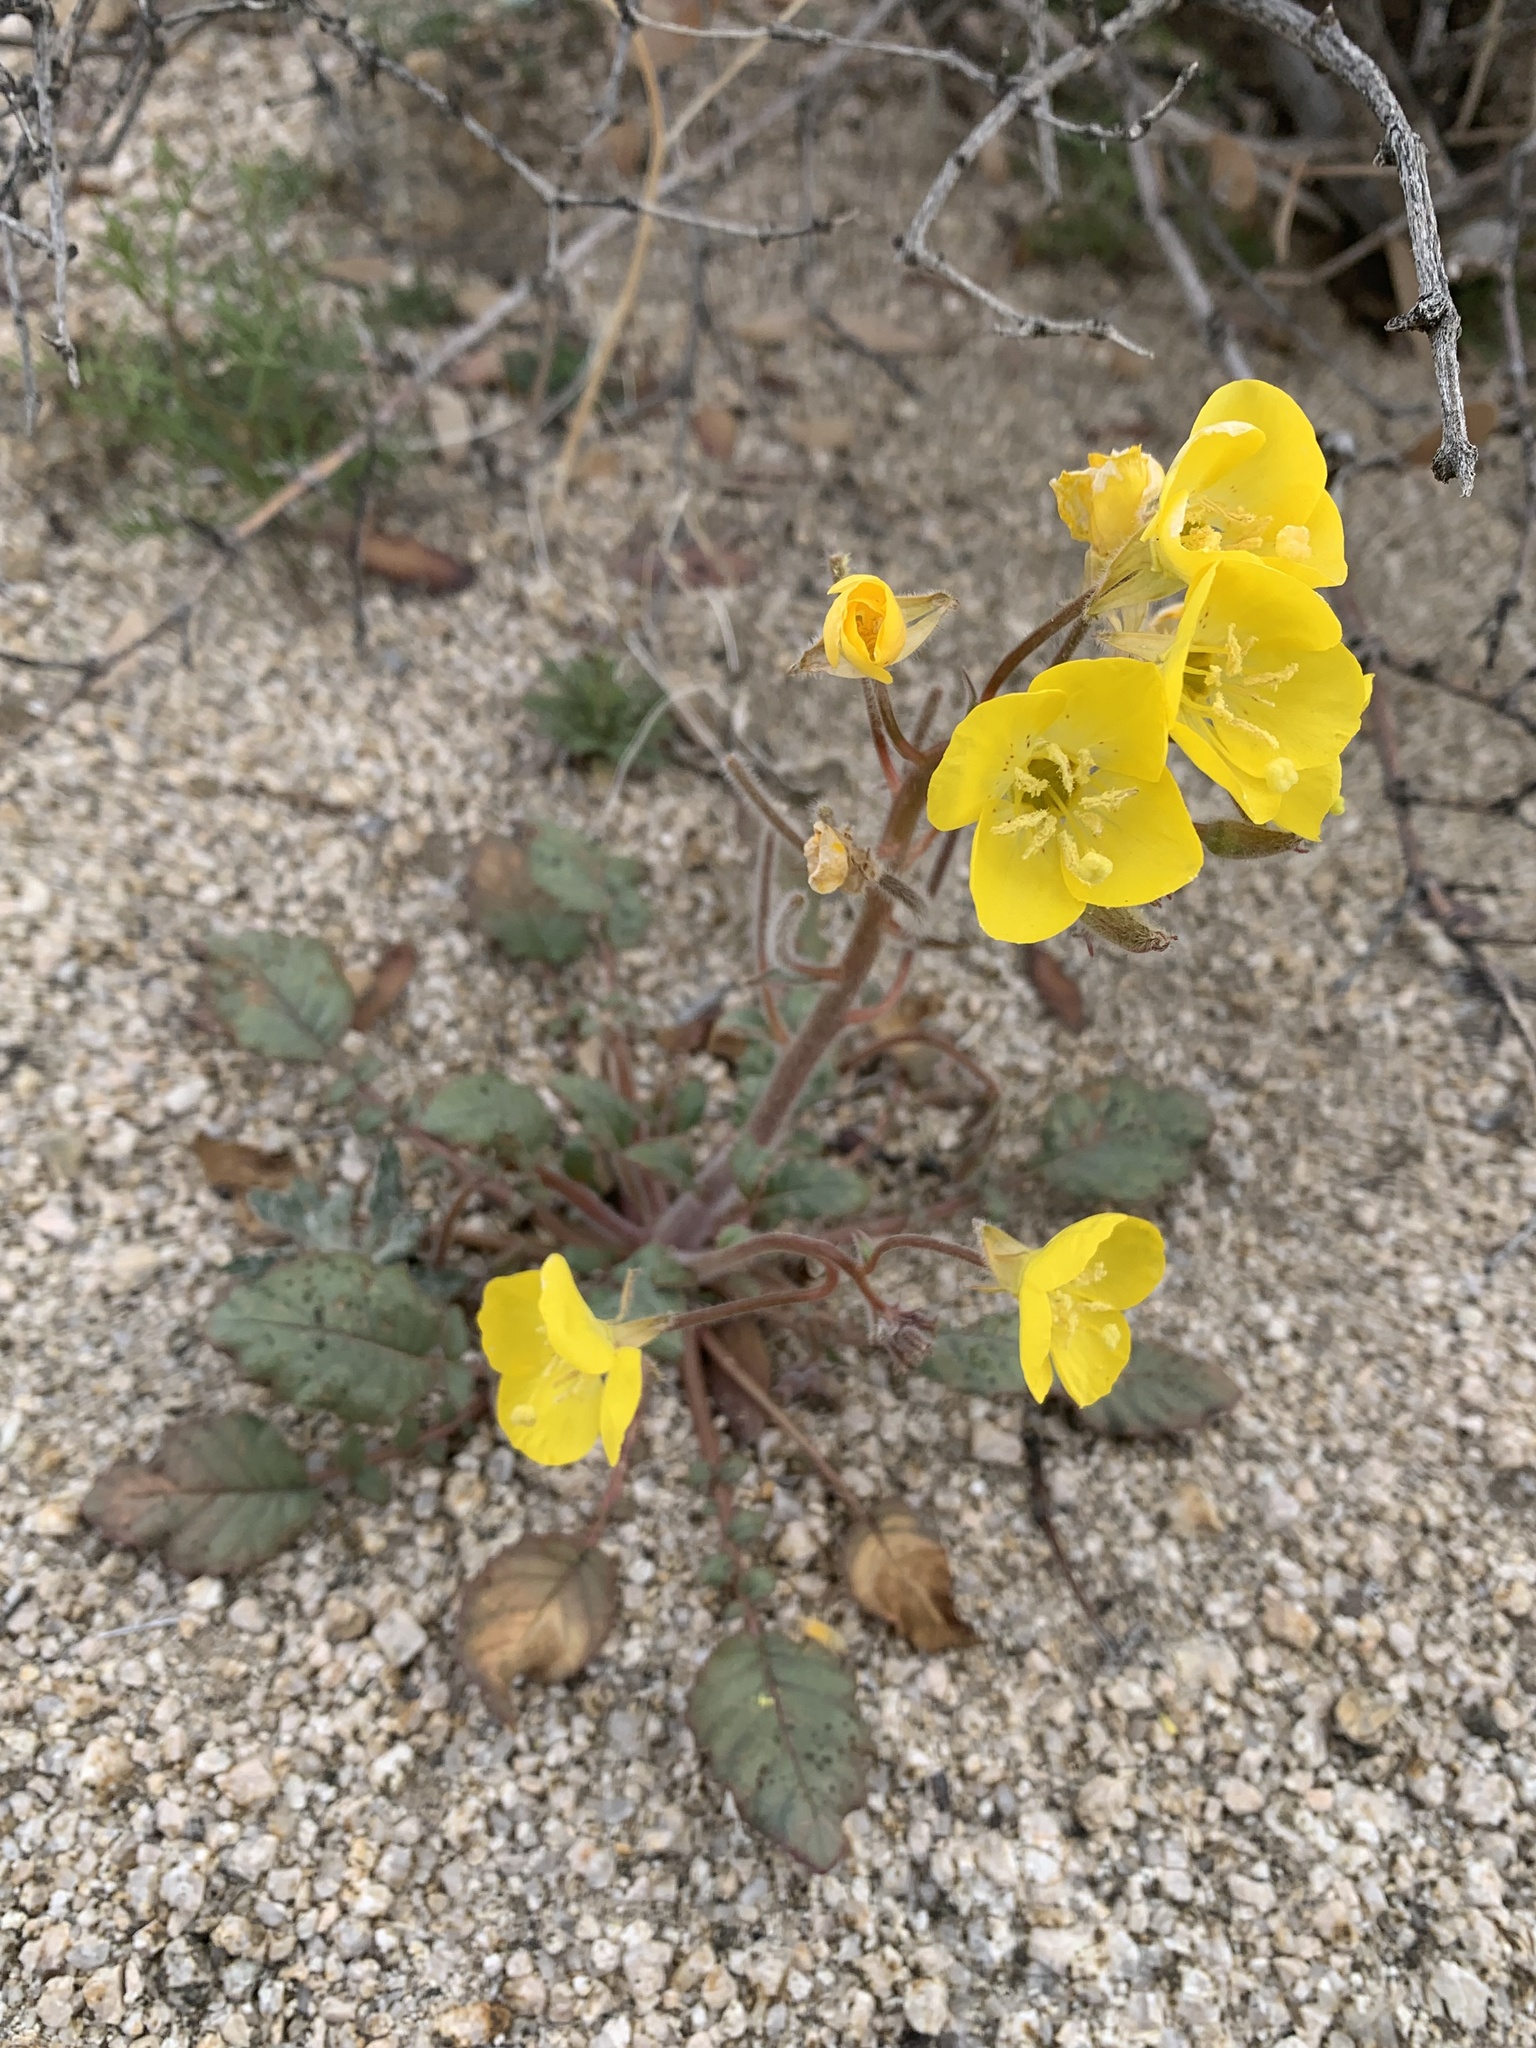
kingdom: Plantae
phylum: Tracheophyta
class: Magnoliopsida
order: Myrtales
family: Onagraceae
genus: Chylismia
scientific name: Chylismia brevipes
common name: Yellow cups
